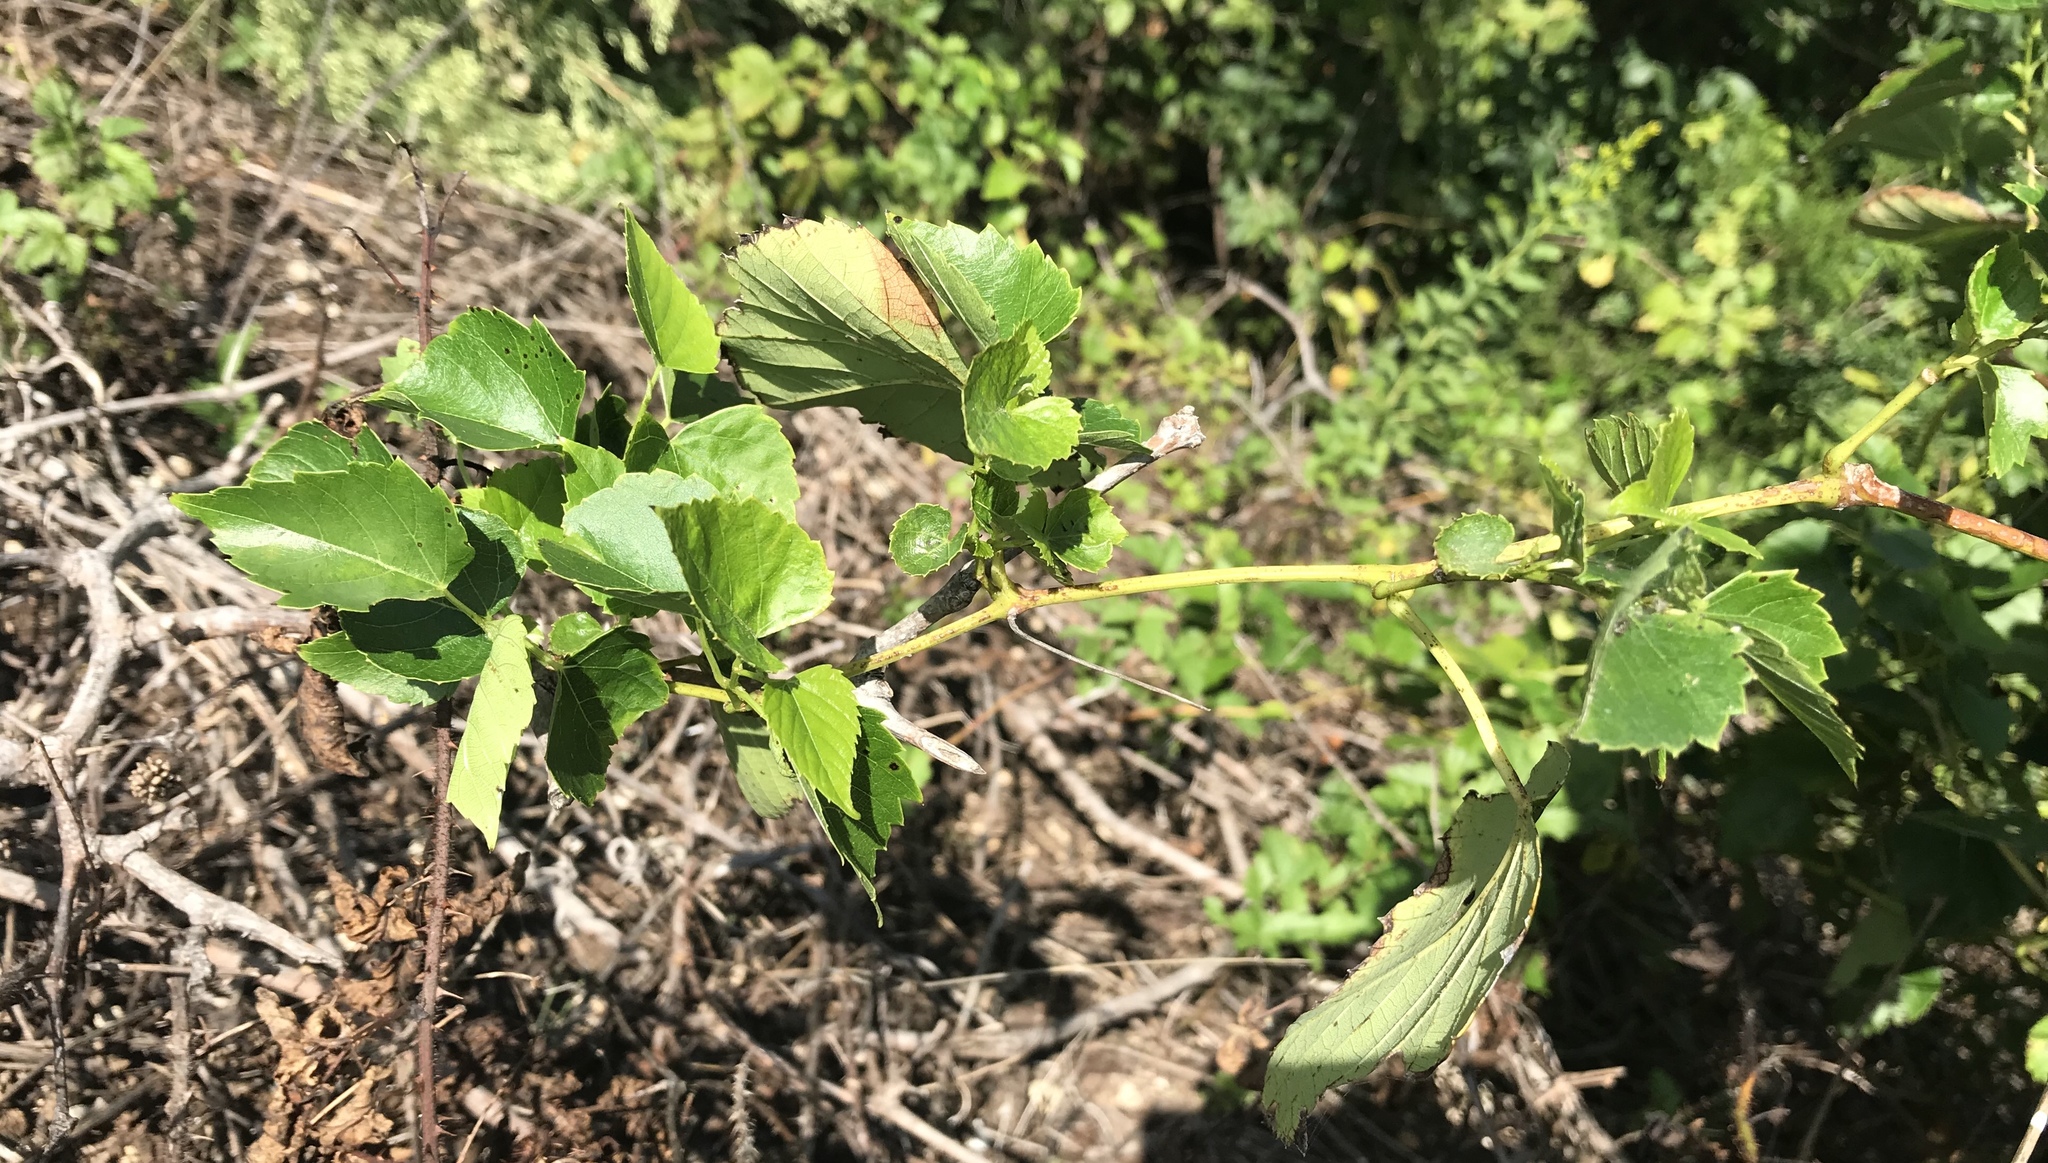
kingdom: Plantae
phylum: Tracheophyta
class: Magnoliopsida
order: Vitales
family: Vitaceae
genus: Ampelopsis
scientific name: Ampelopsis cordata
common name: Heart-leaf ampelopsis
